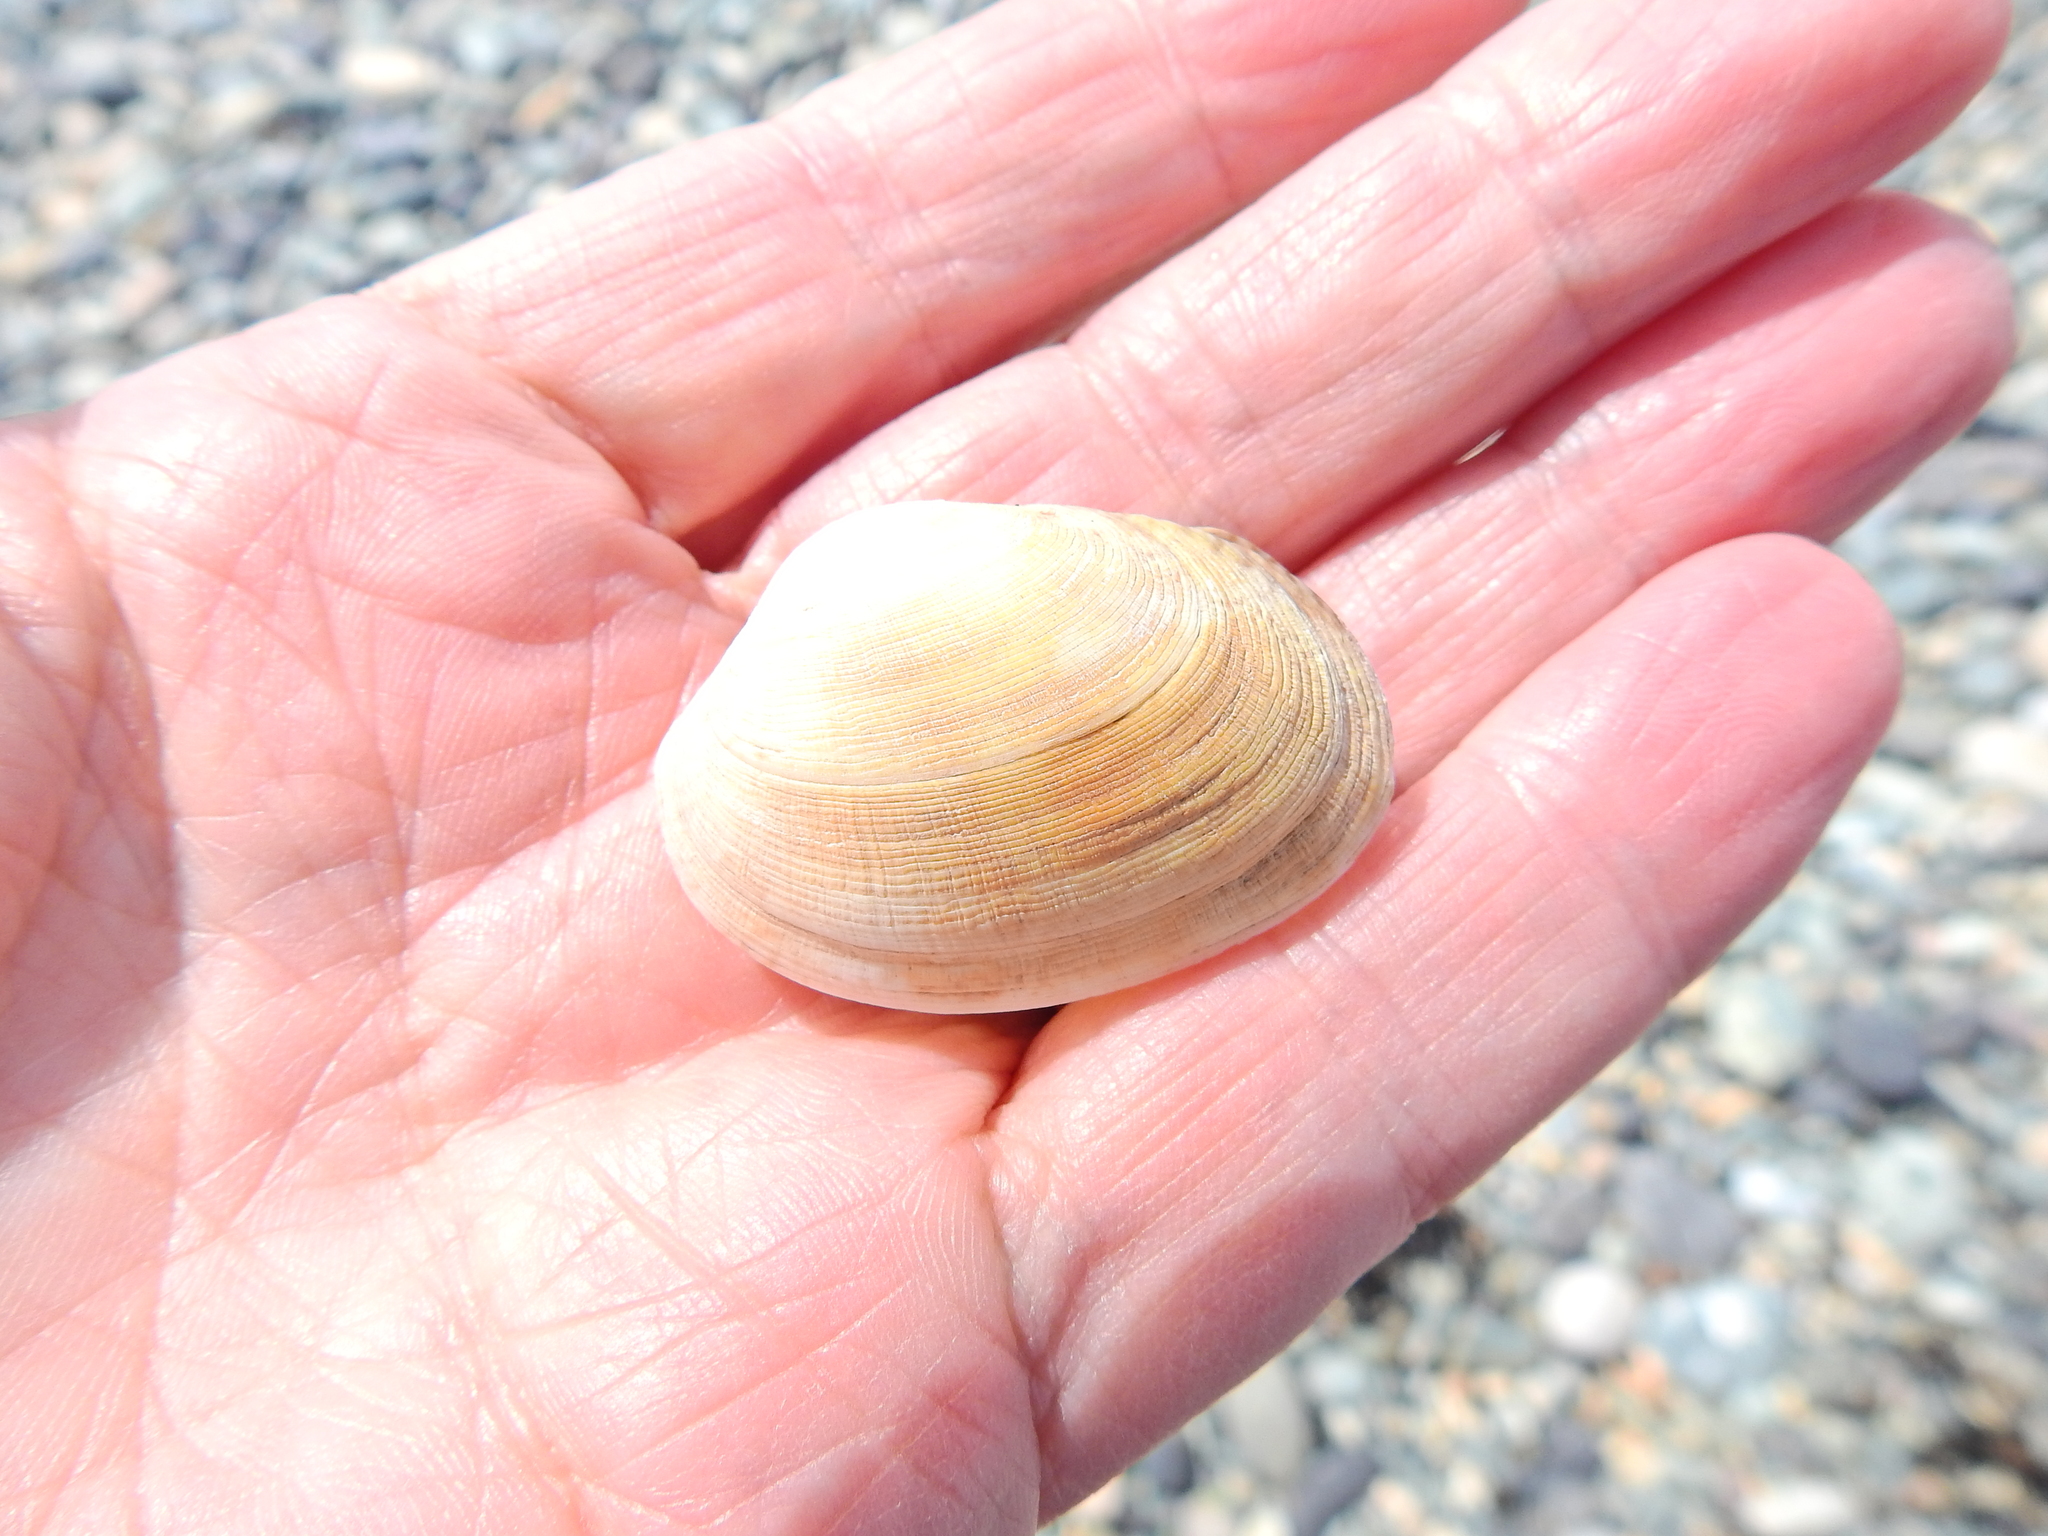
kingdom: Animalia
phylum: Mollusca
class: Bivalvia
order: Venerida
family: Veneridae
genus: Venerupis
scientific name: Venerupis corrugata
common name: Pullet carpet shell
